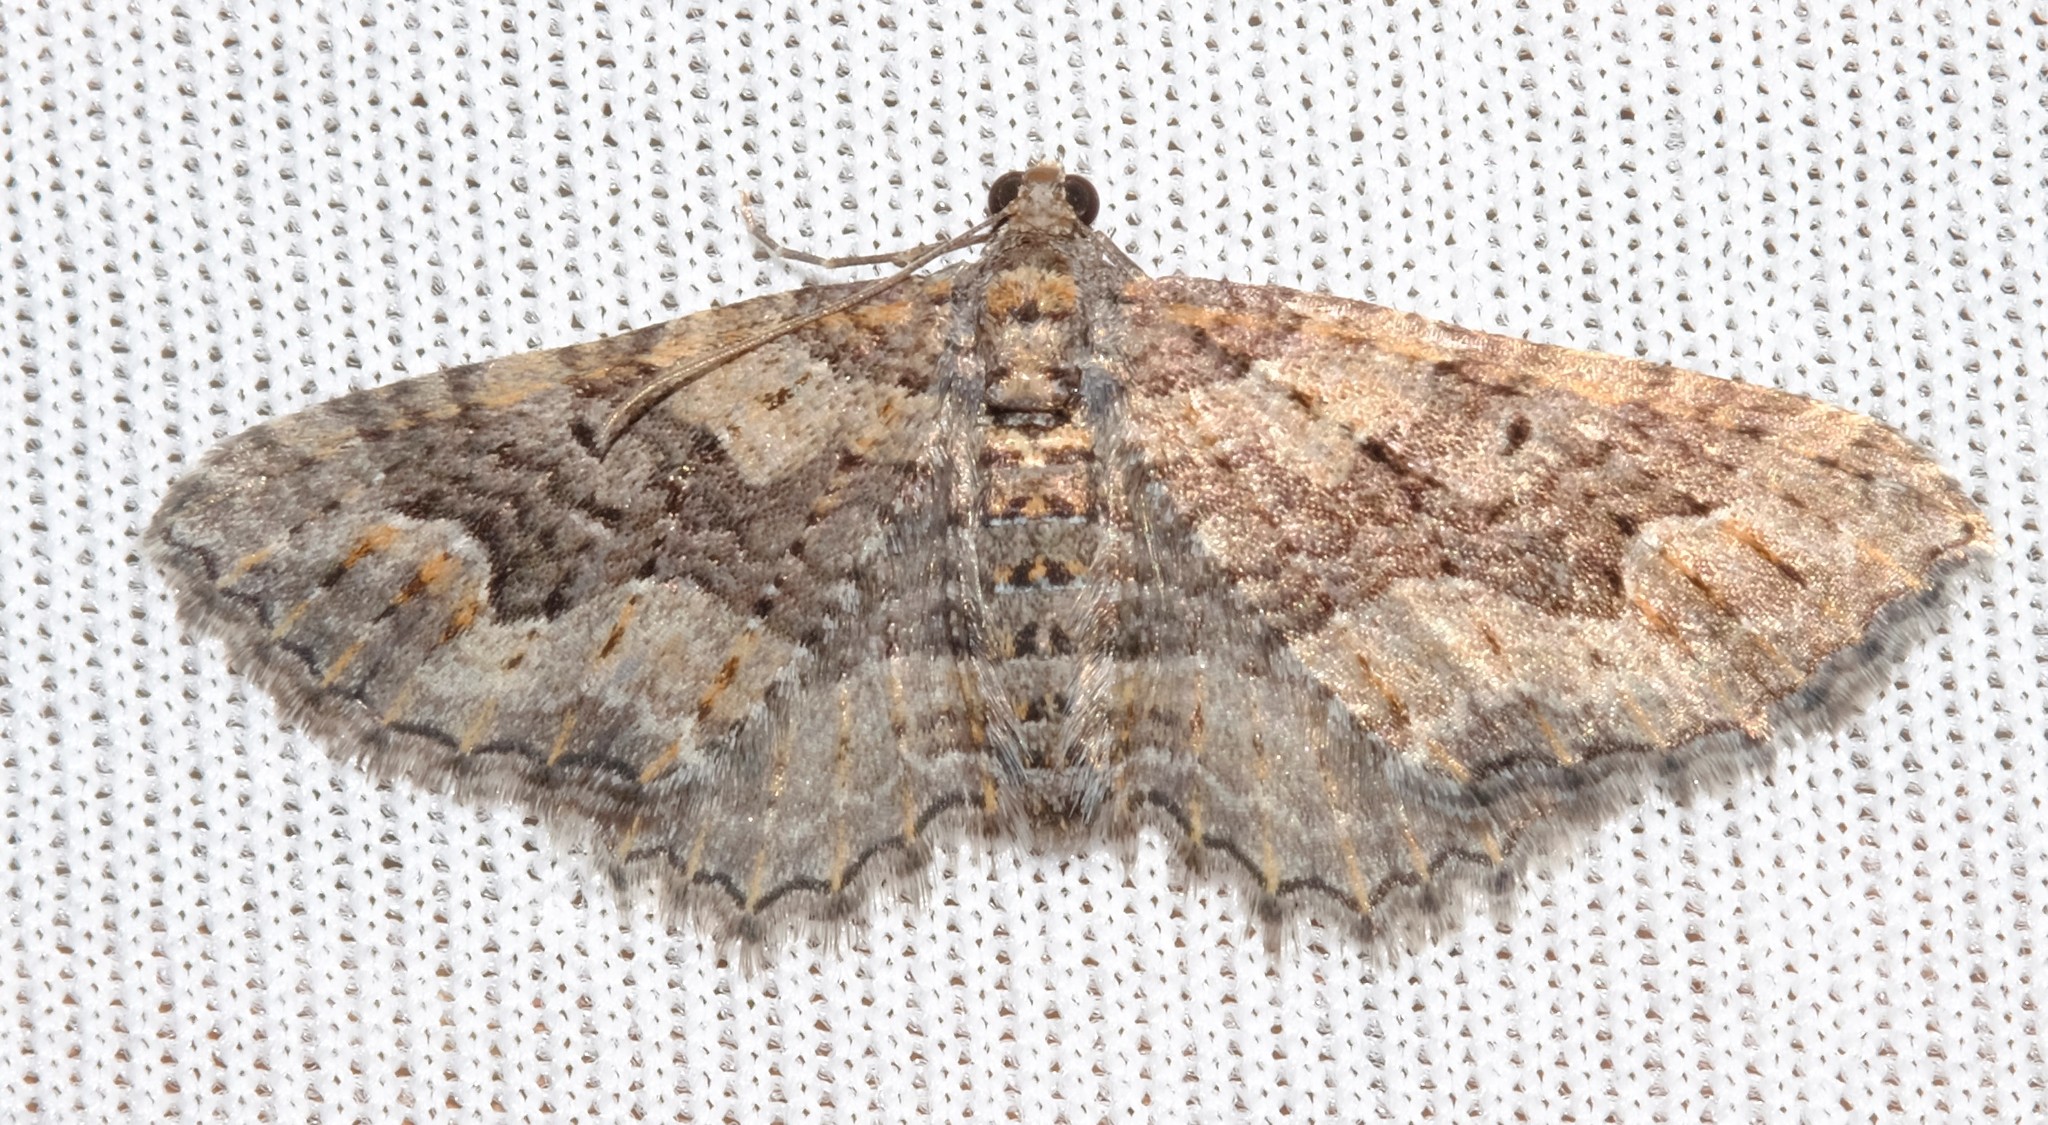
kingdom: Animalia
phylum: Arthropoda
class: Insecta
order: Lepidoptera
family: Geometridae
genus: Chrysolarentia
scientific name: Chrysolarentia plesia
